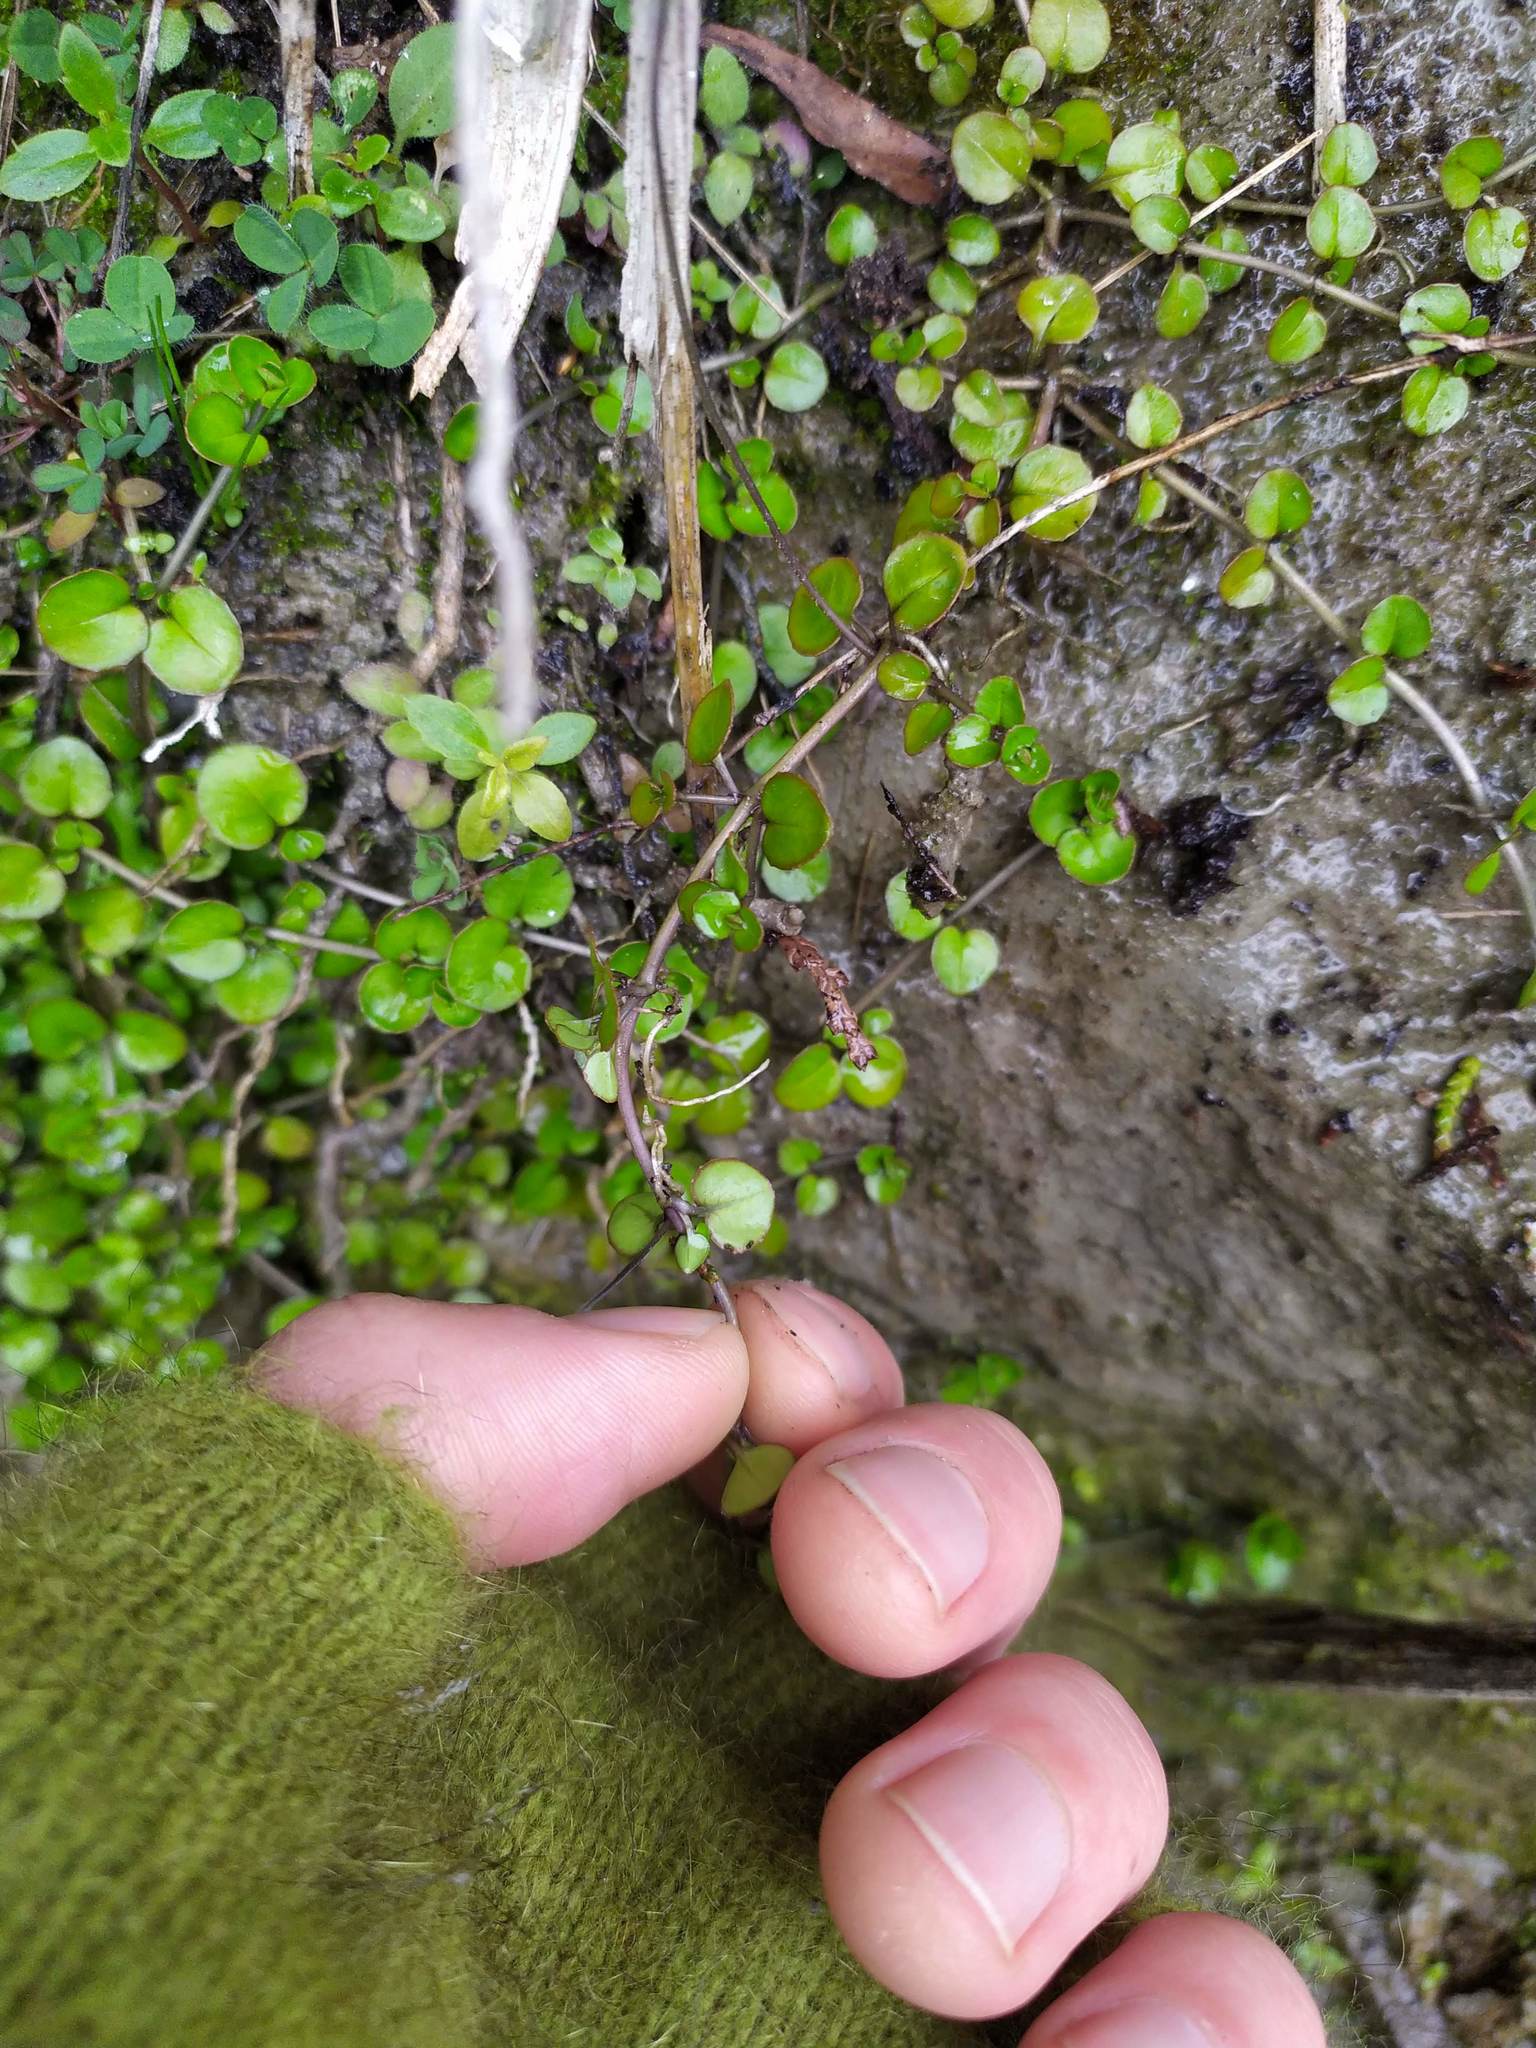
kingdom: Plantae
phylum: Tracheophyta
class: Magnoliopsida
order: Myrtales
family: Onagraceae
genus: Epilobium
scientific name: Epilobium nummularifolium
